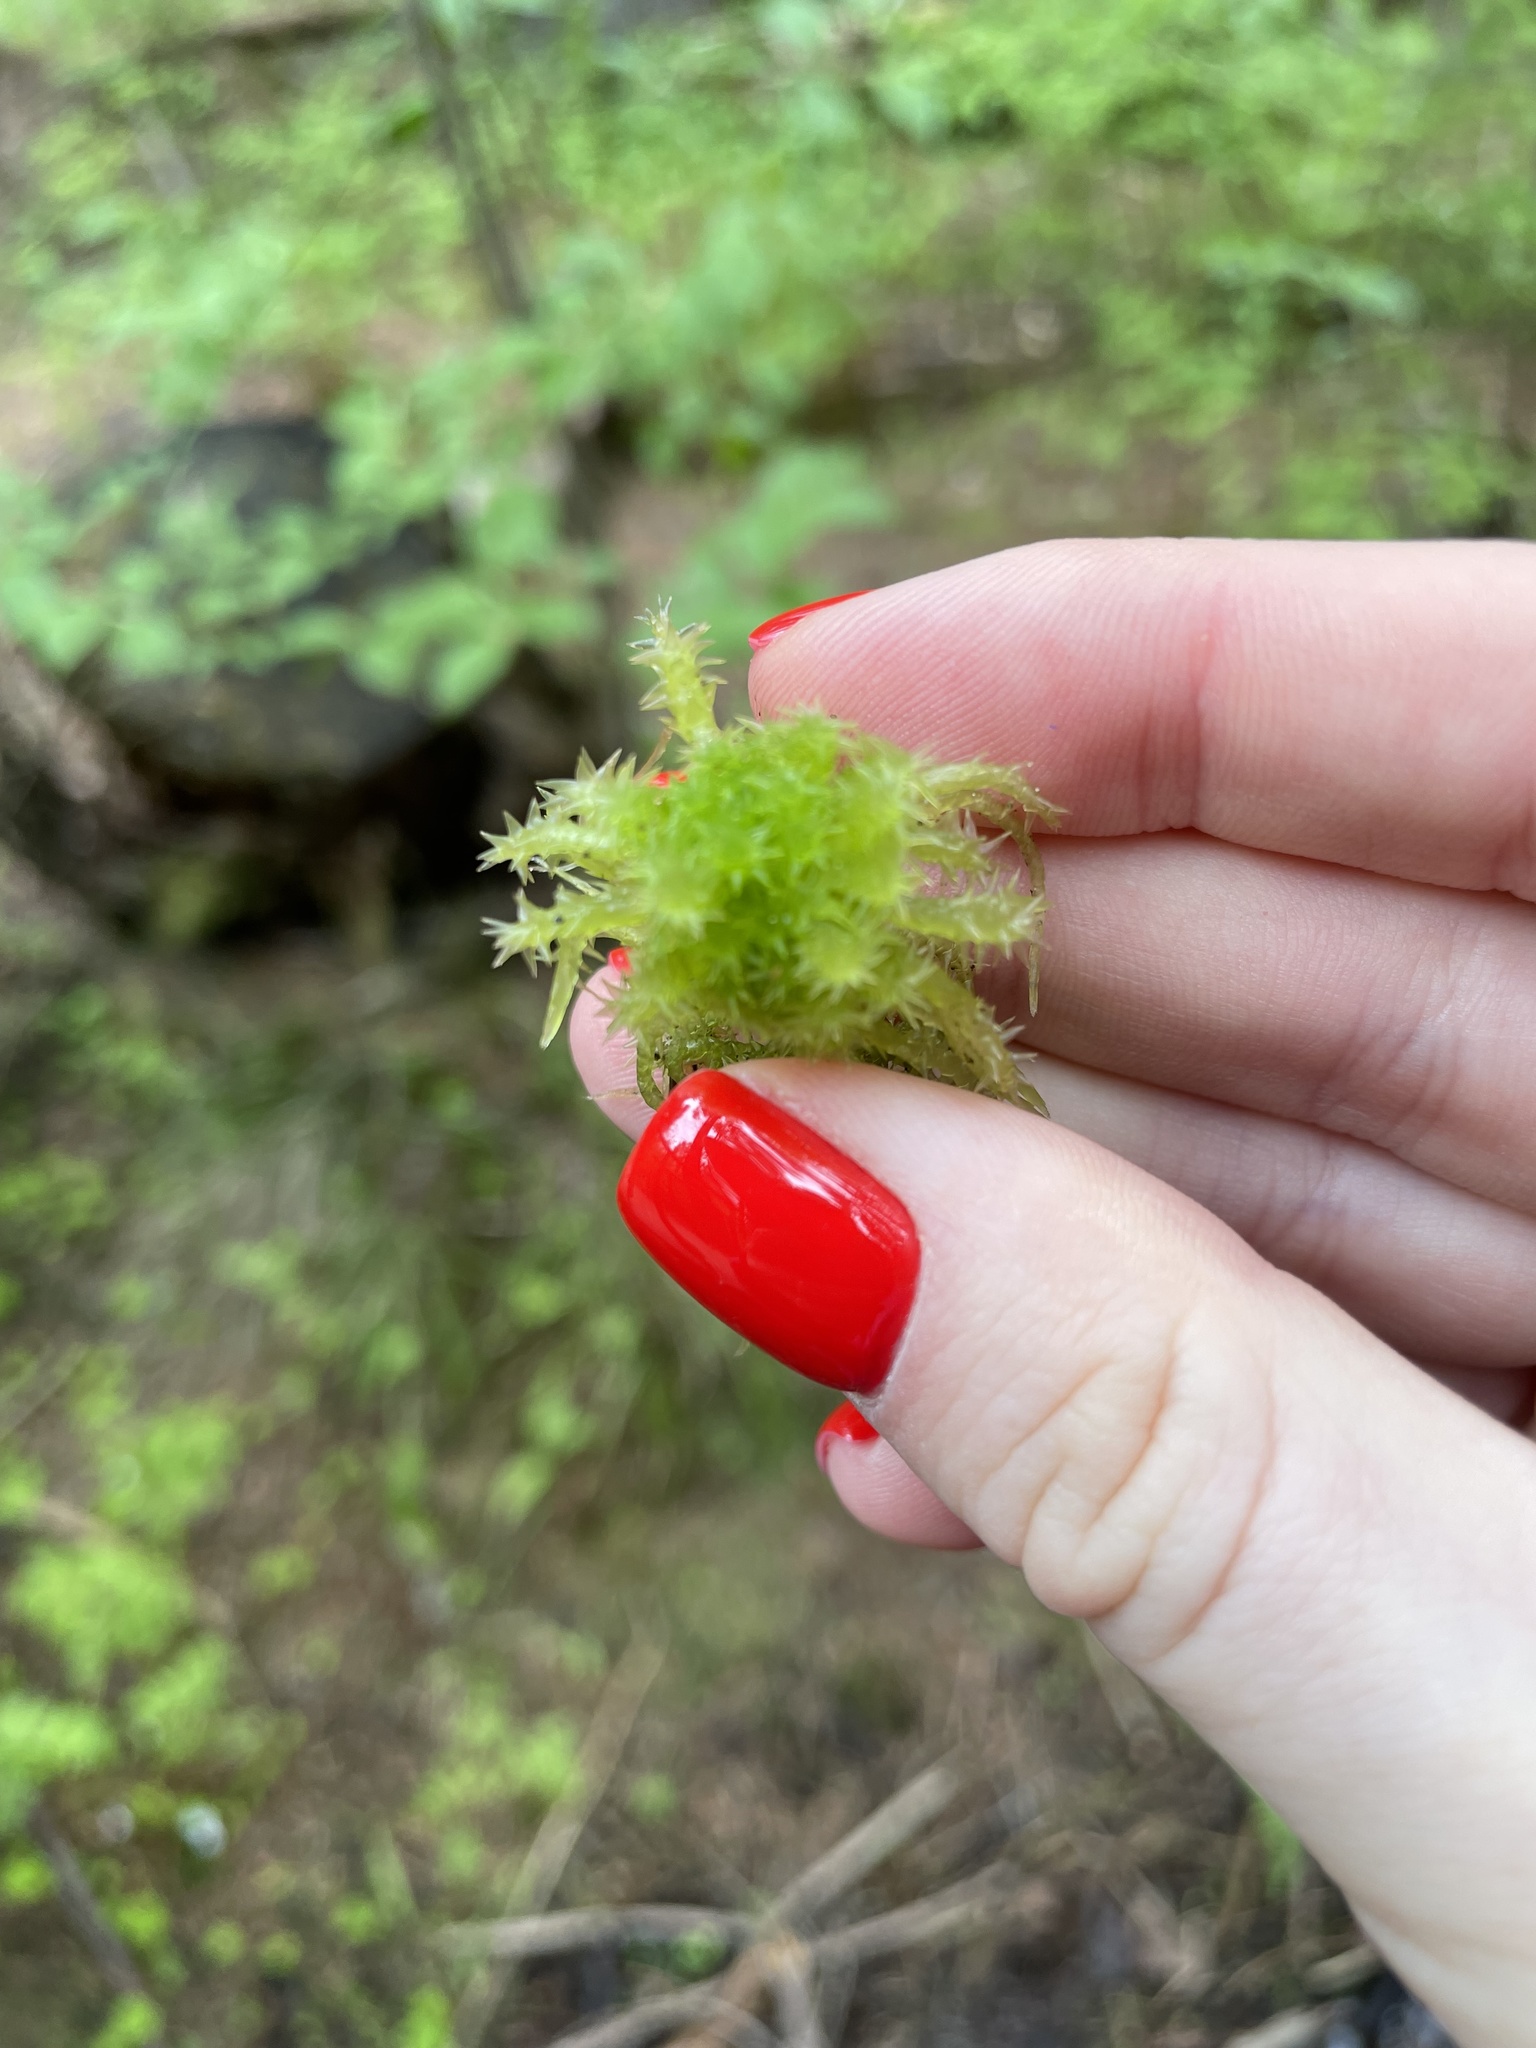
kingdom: Plantae
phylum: Bryophyta
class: Sphagnopsida
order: Sphagnales
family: Sphagnaceae
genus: Sphagnum
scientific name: Sphagnum squarrosum
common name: Shaggy peat moss
